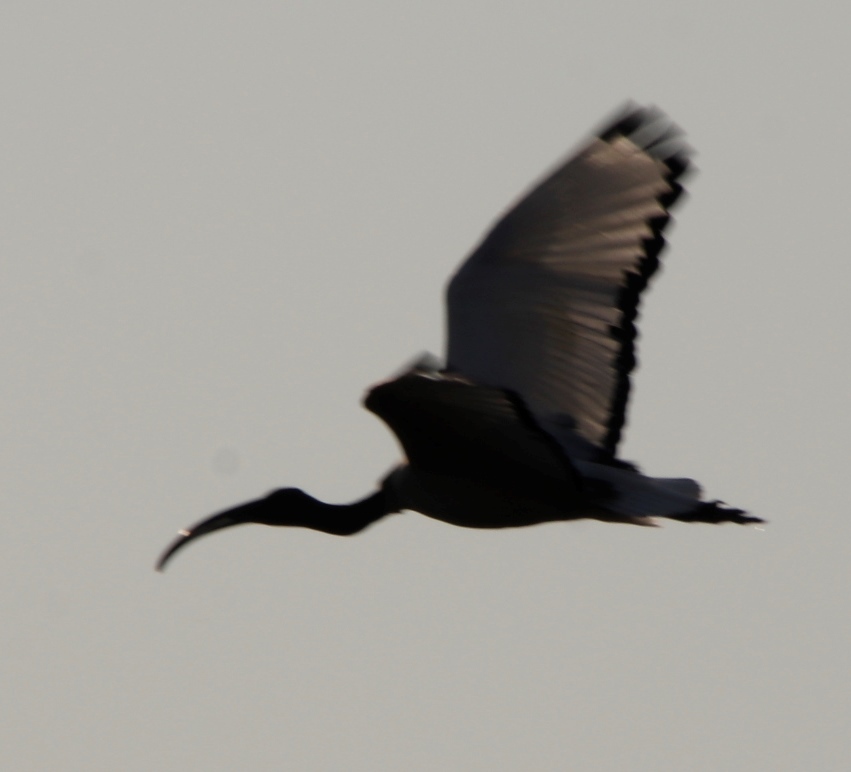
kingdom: Animalia
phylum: Chordata
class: Aves
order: Pelecaniformes
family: Threskiornithidae
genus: Threskiornis
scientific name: Threskiornis aethiopicus
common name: Sacred ibis
